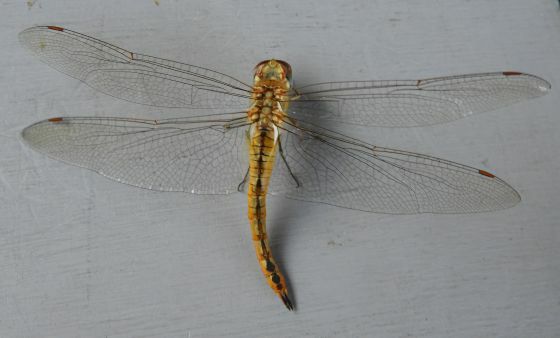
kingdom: Animalia
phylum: Arthropoda
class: Insecta
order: Odonata
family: Libellulidae
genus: Pantala
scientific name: Pantala flavescens
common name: Wandering glider
